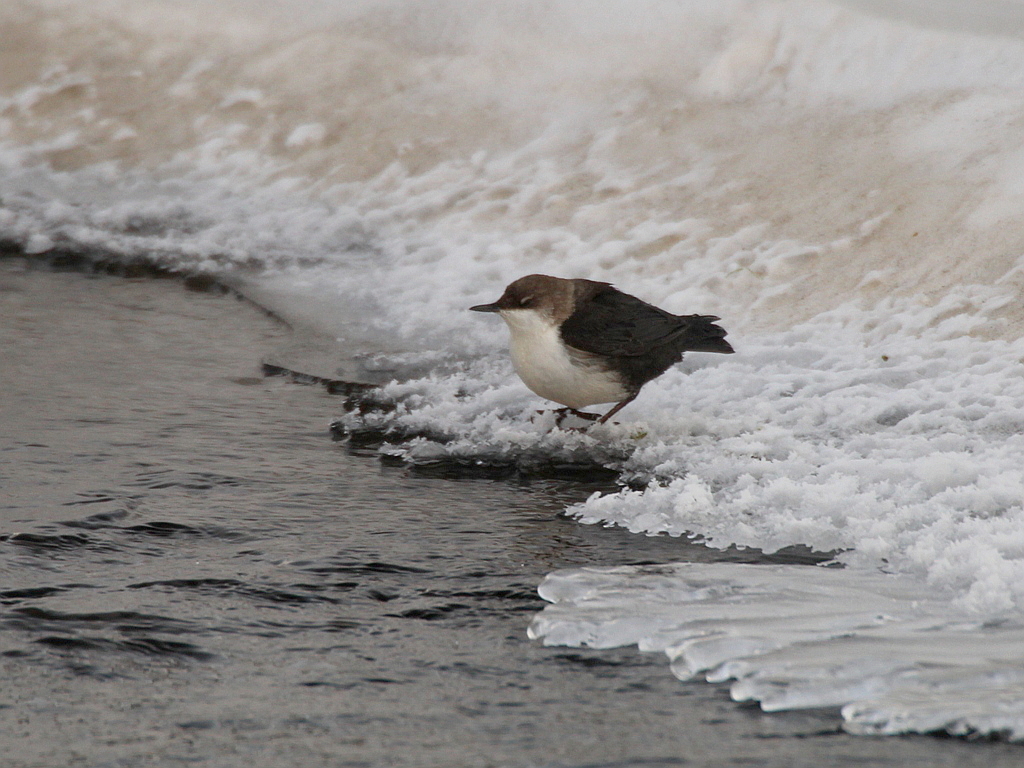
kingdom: Animalia
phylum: Chordata
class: Aves
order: Passeriformes
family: Cinclidae
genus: Cinclus
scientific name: Cinclus cinclus
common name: White-throated dipper
